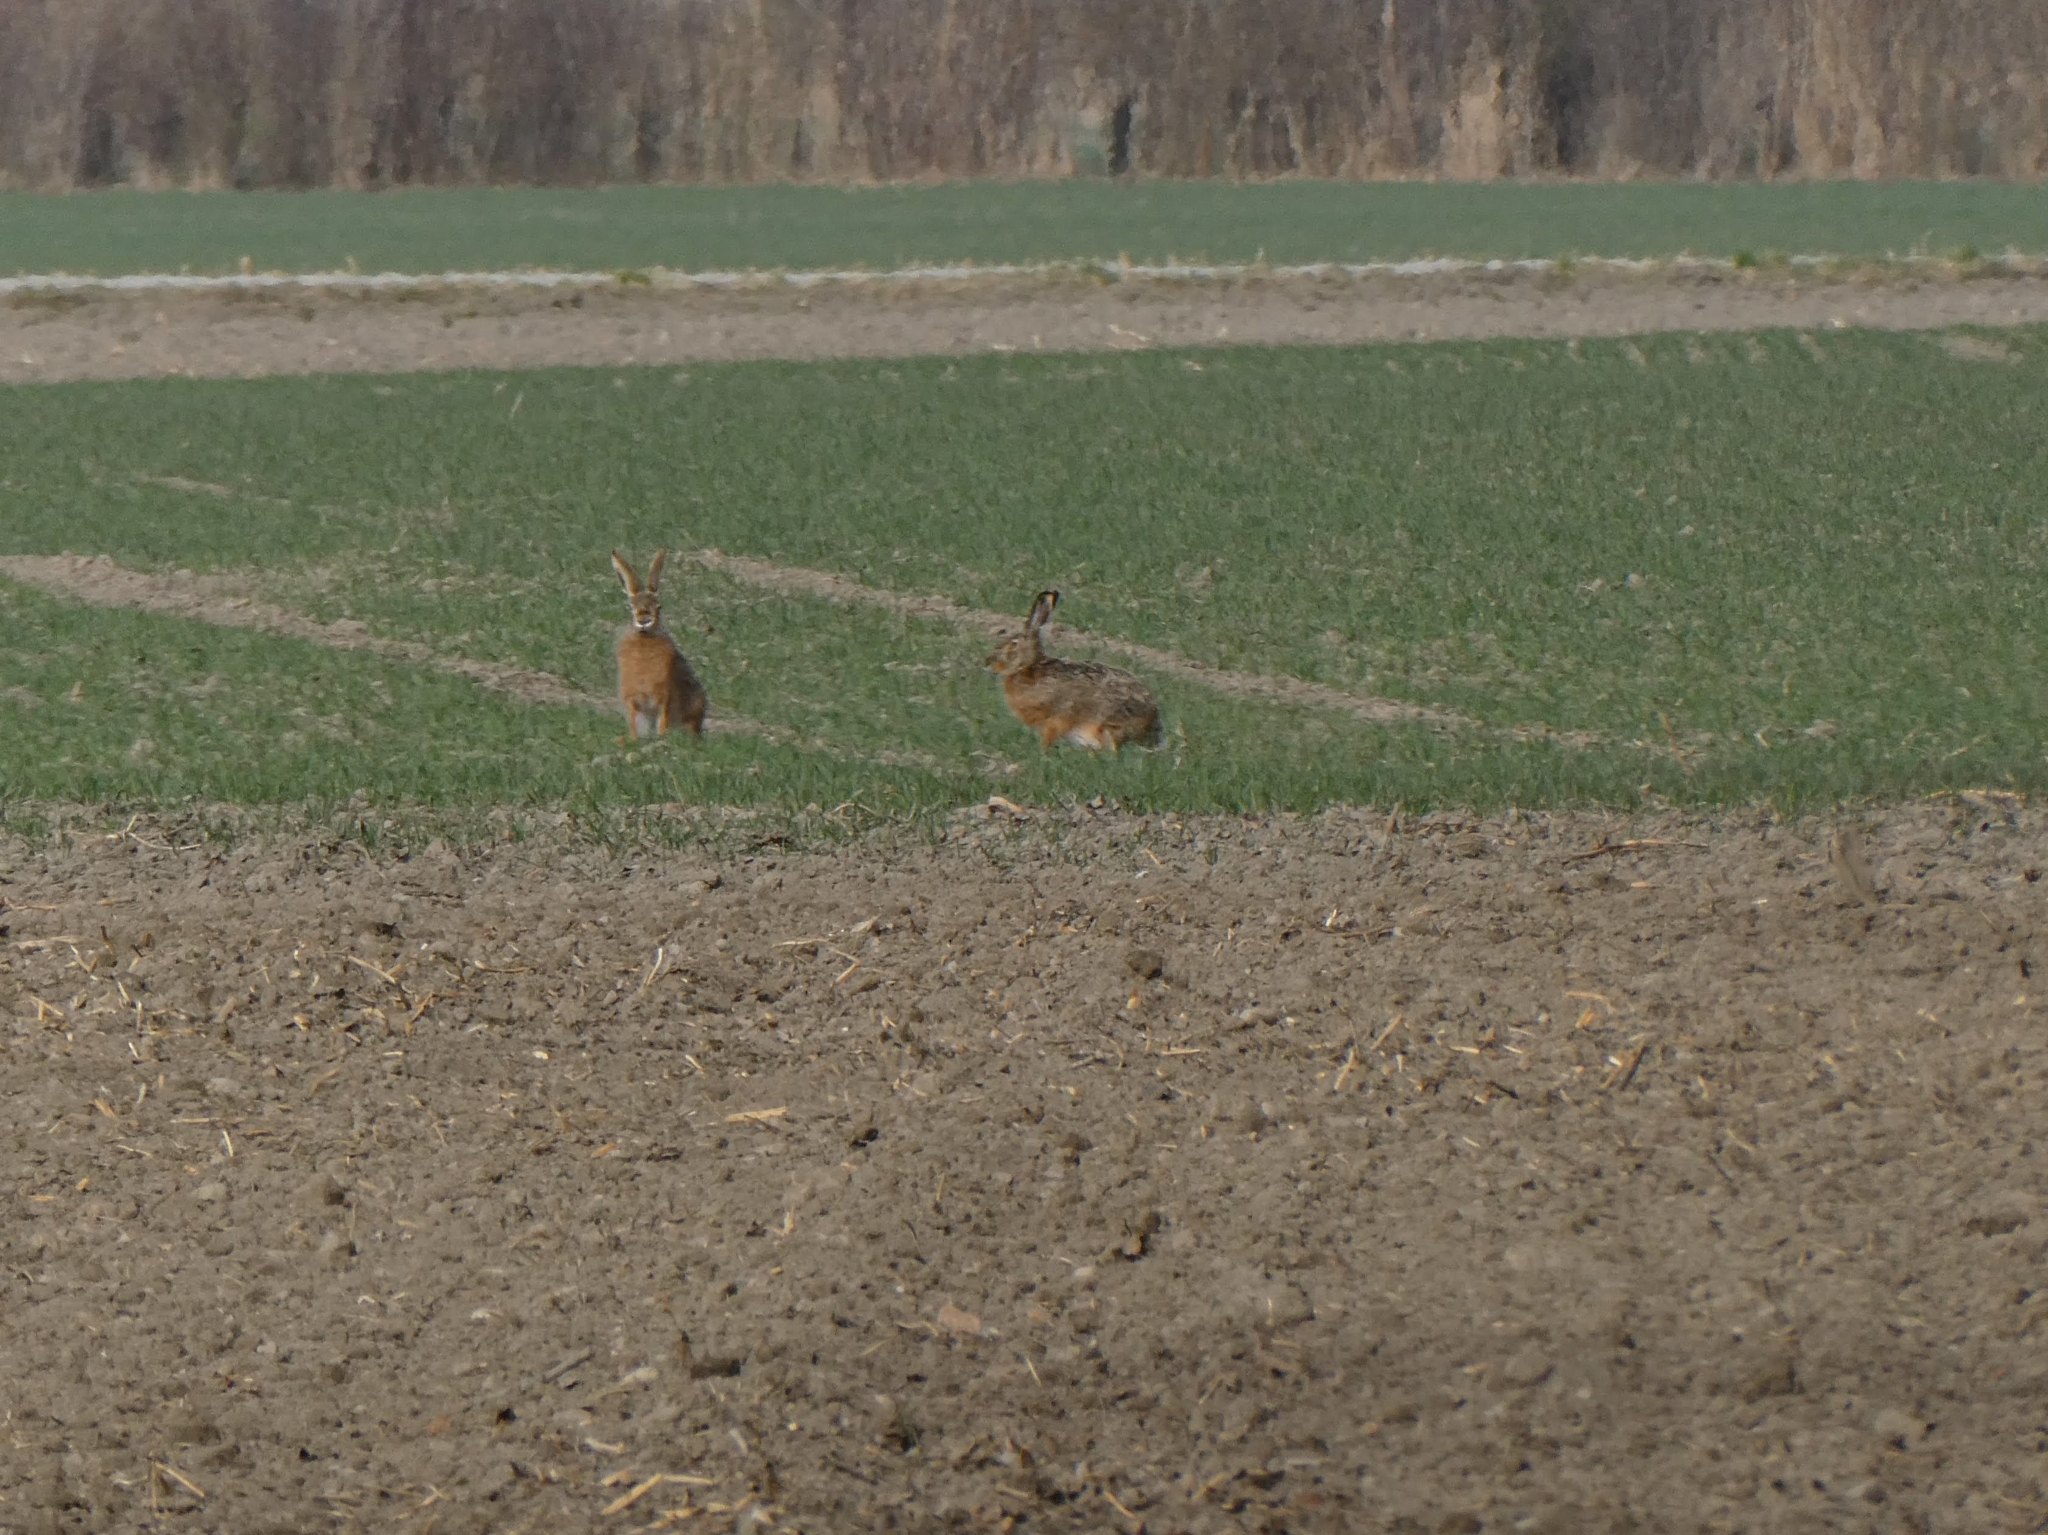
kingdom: Animalia
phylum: Chordata
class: Mammalia
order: Lagomorpha
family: Leporidae
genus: Lepus
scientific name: Lepus europaeus
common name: European hare
